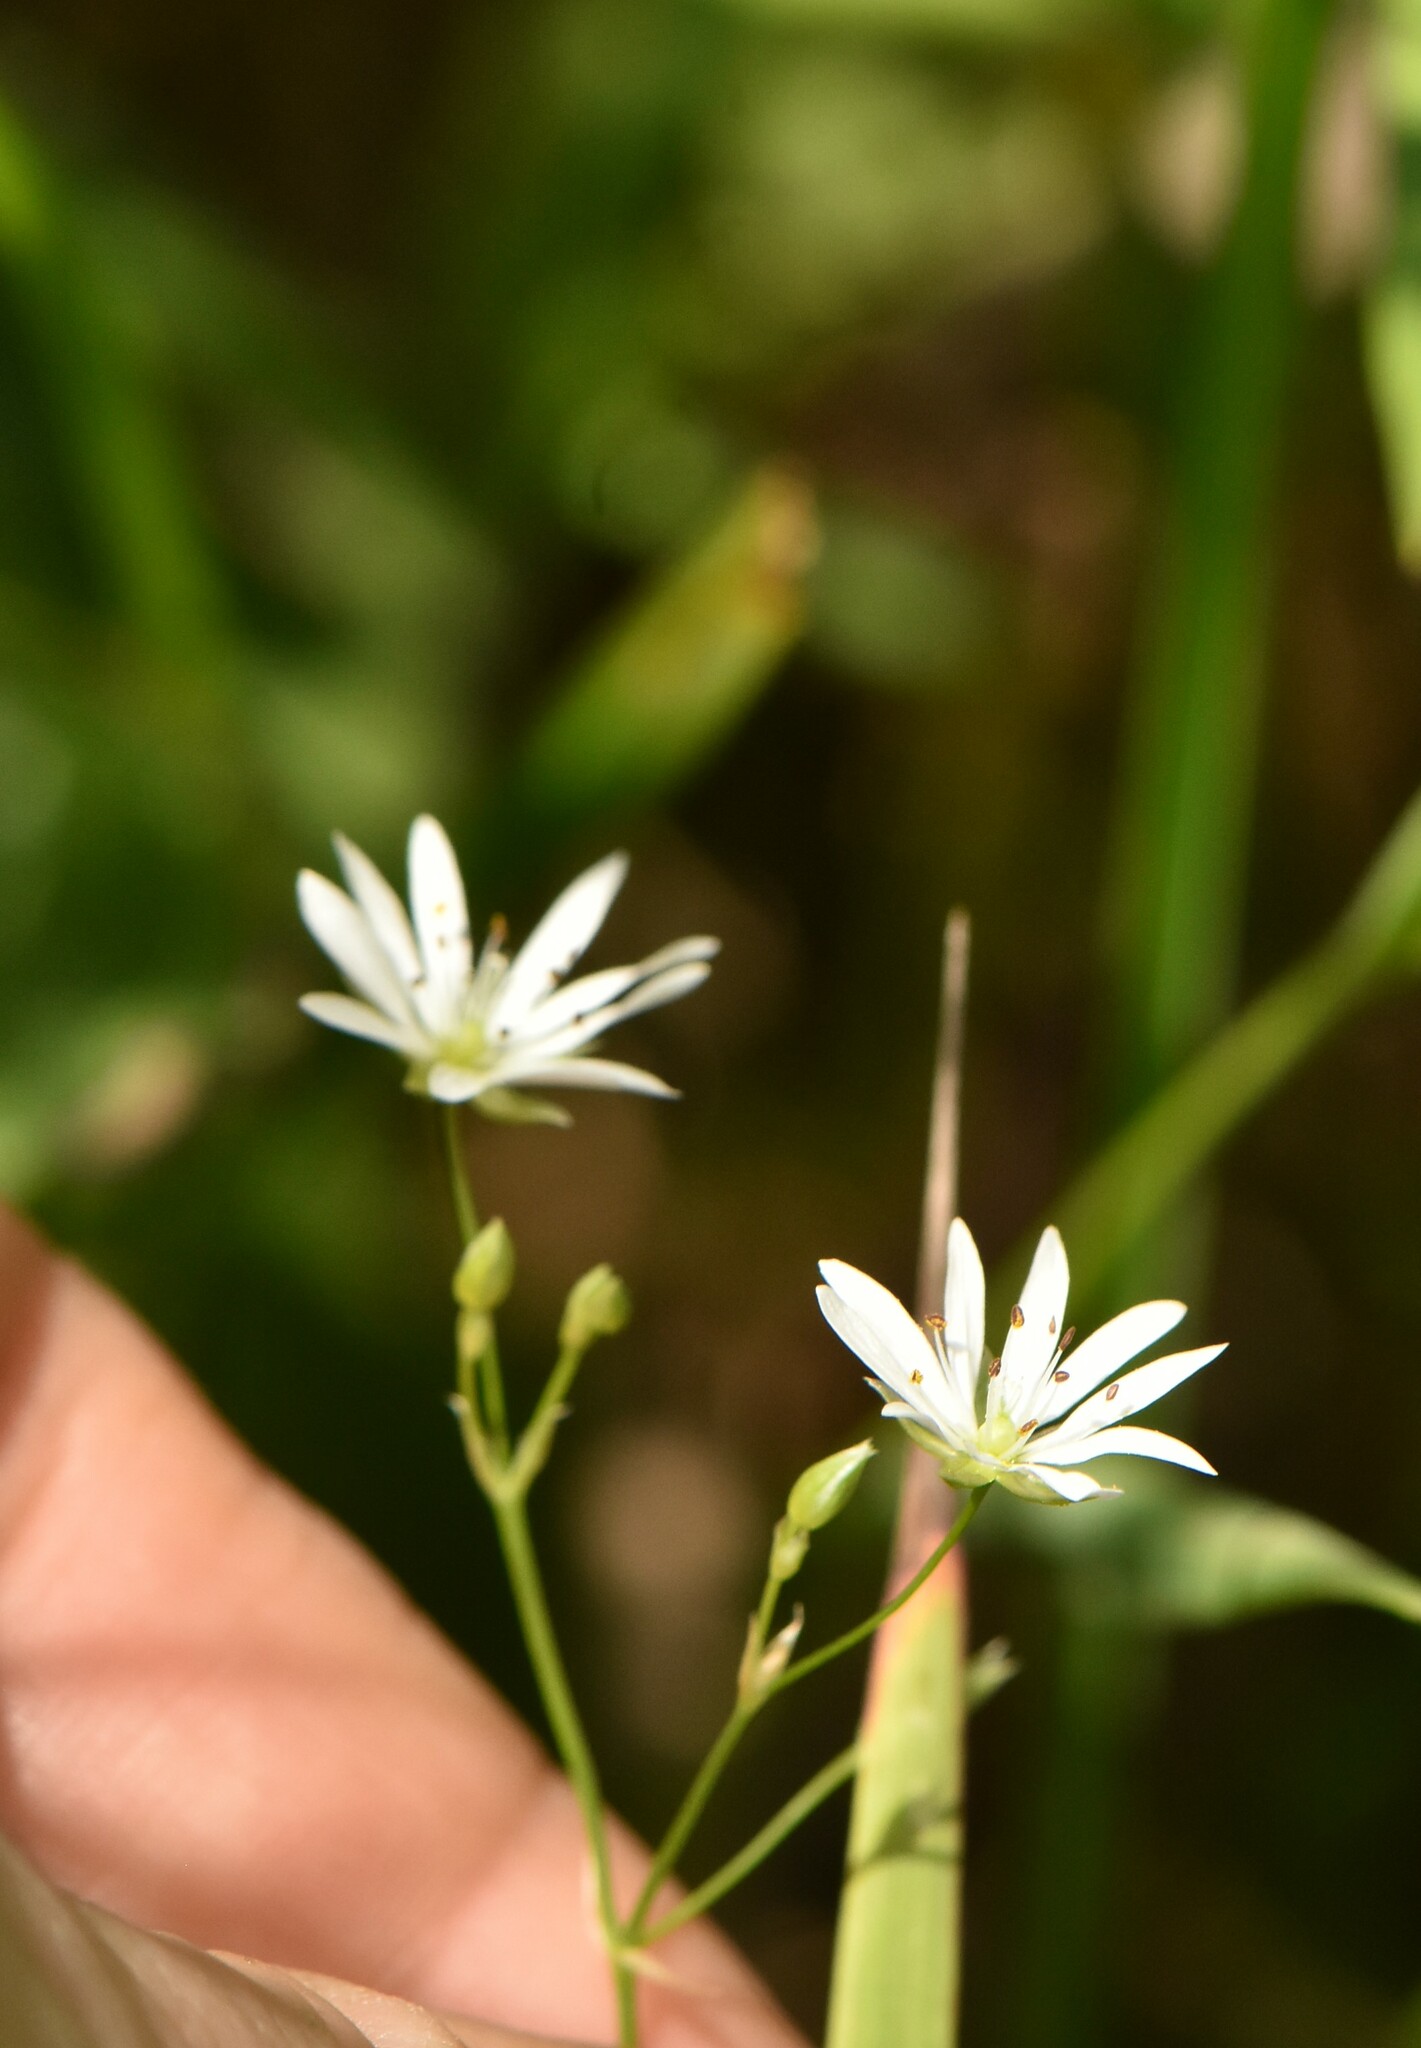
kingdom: Plantae
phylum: Tracheophyta
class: Magnoliopsida
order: Caryophyllales
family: Caryophyllaceae
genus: Stellaria
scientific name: Stellaria graminea
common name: Grass-like starwort
